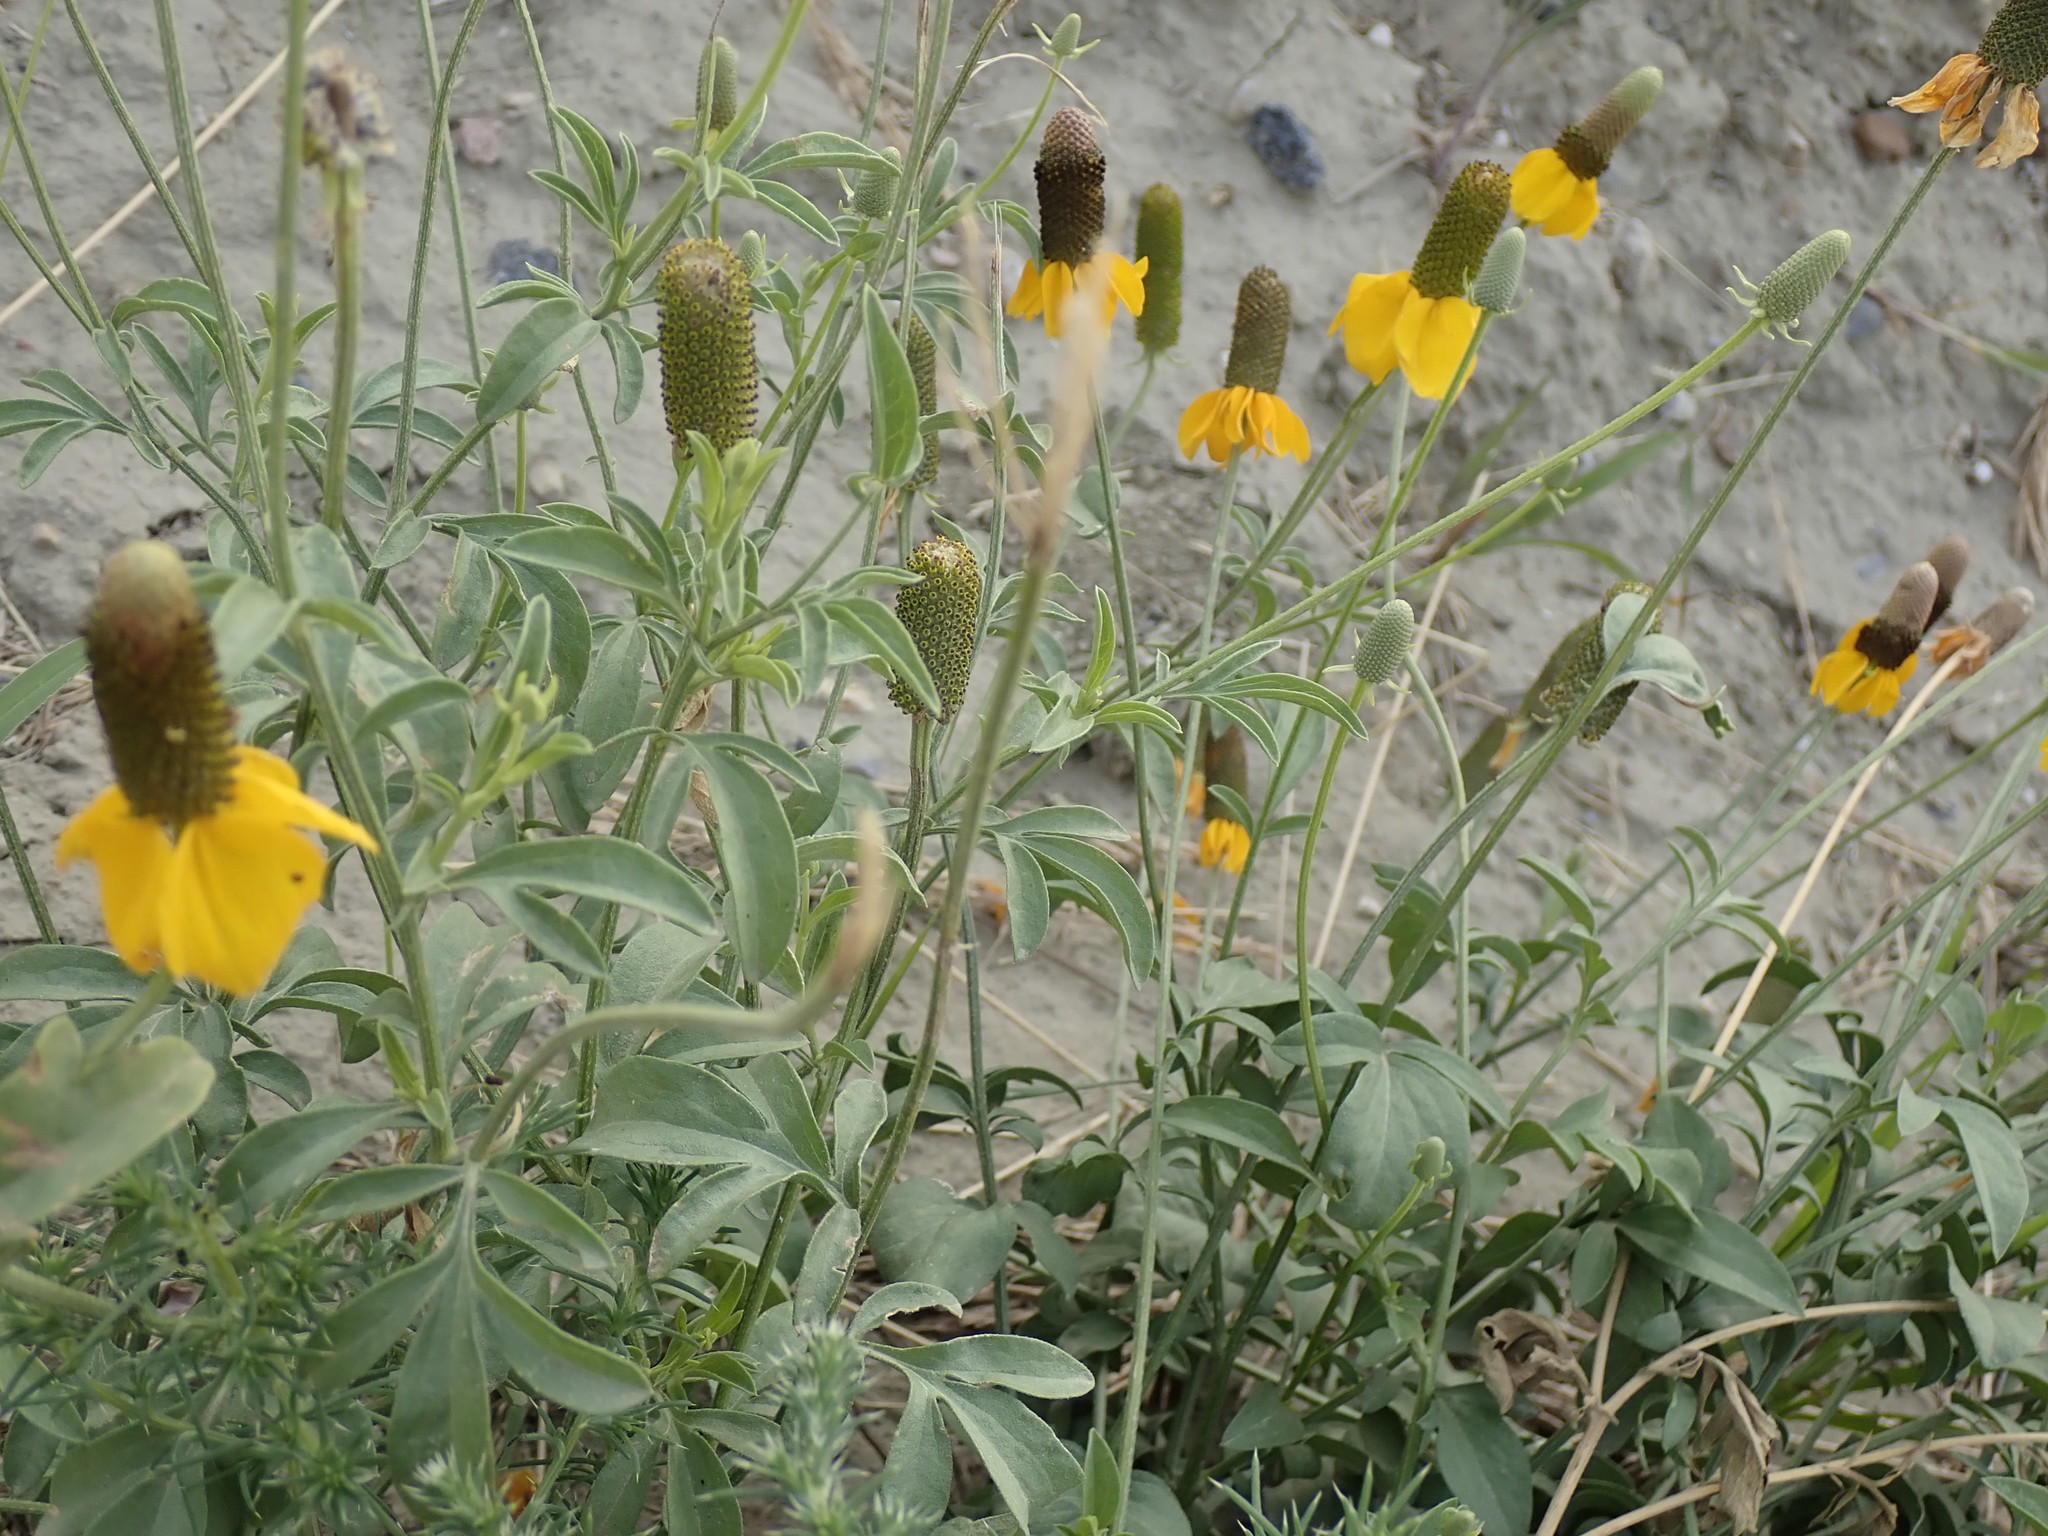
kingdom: Plantae
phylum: Tracheophyta
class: Magnoliopsida
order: Asterales
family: Asteraceae
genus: Ratibida
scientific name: Ratibida columnifera
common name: Prairie coneflower
